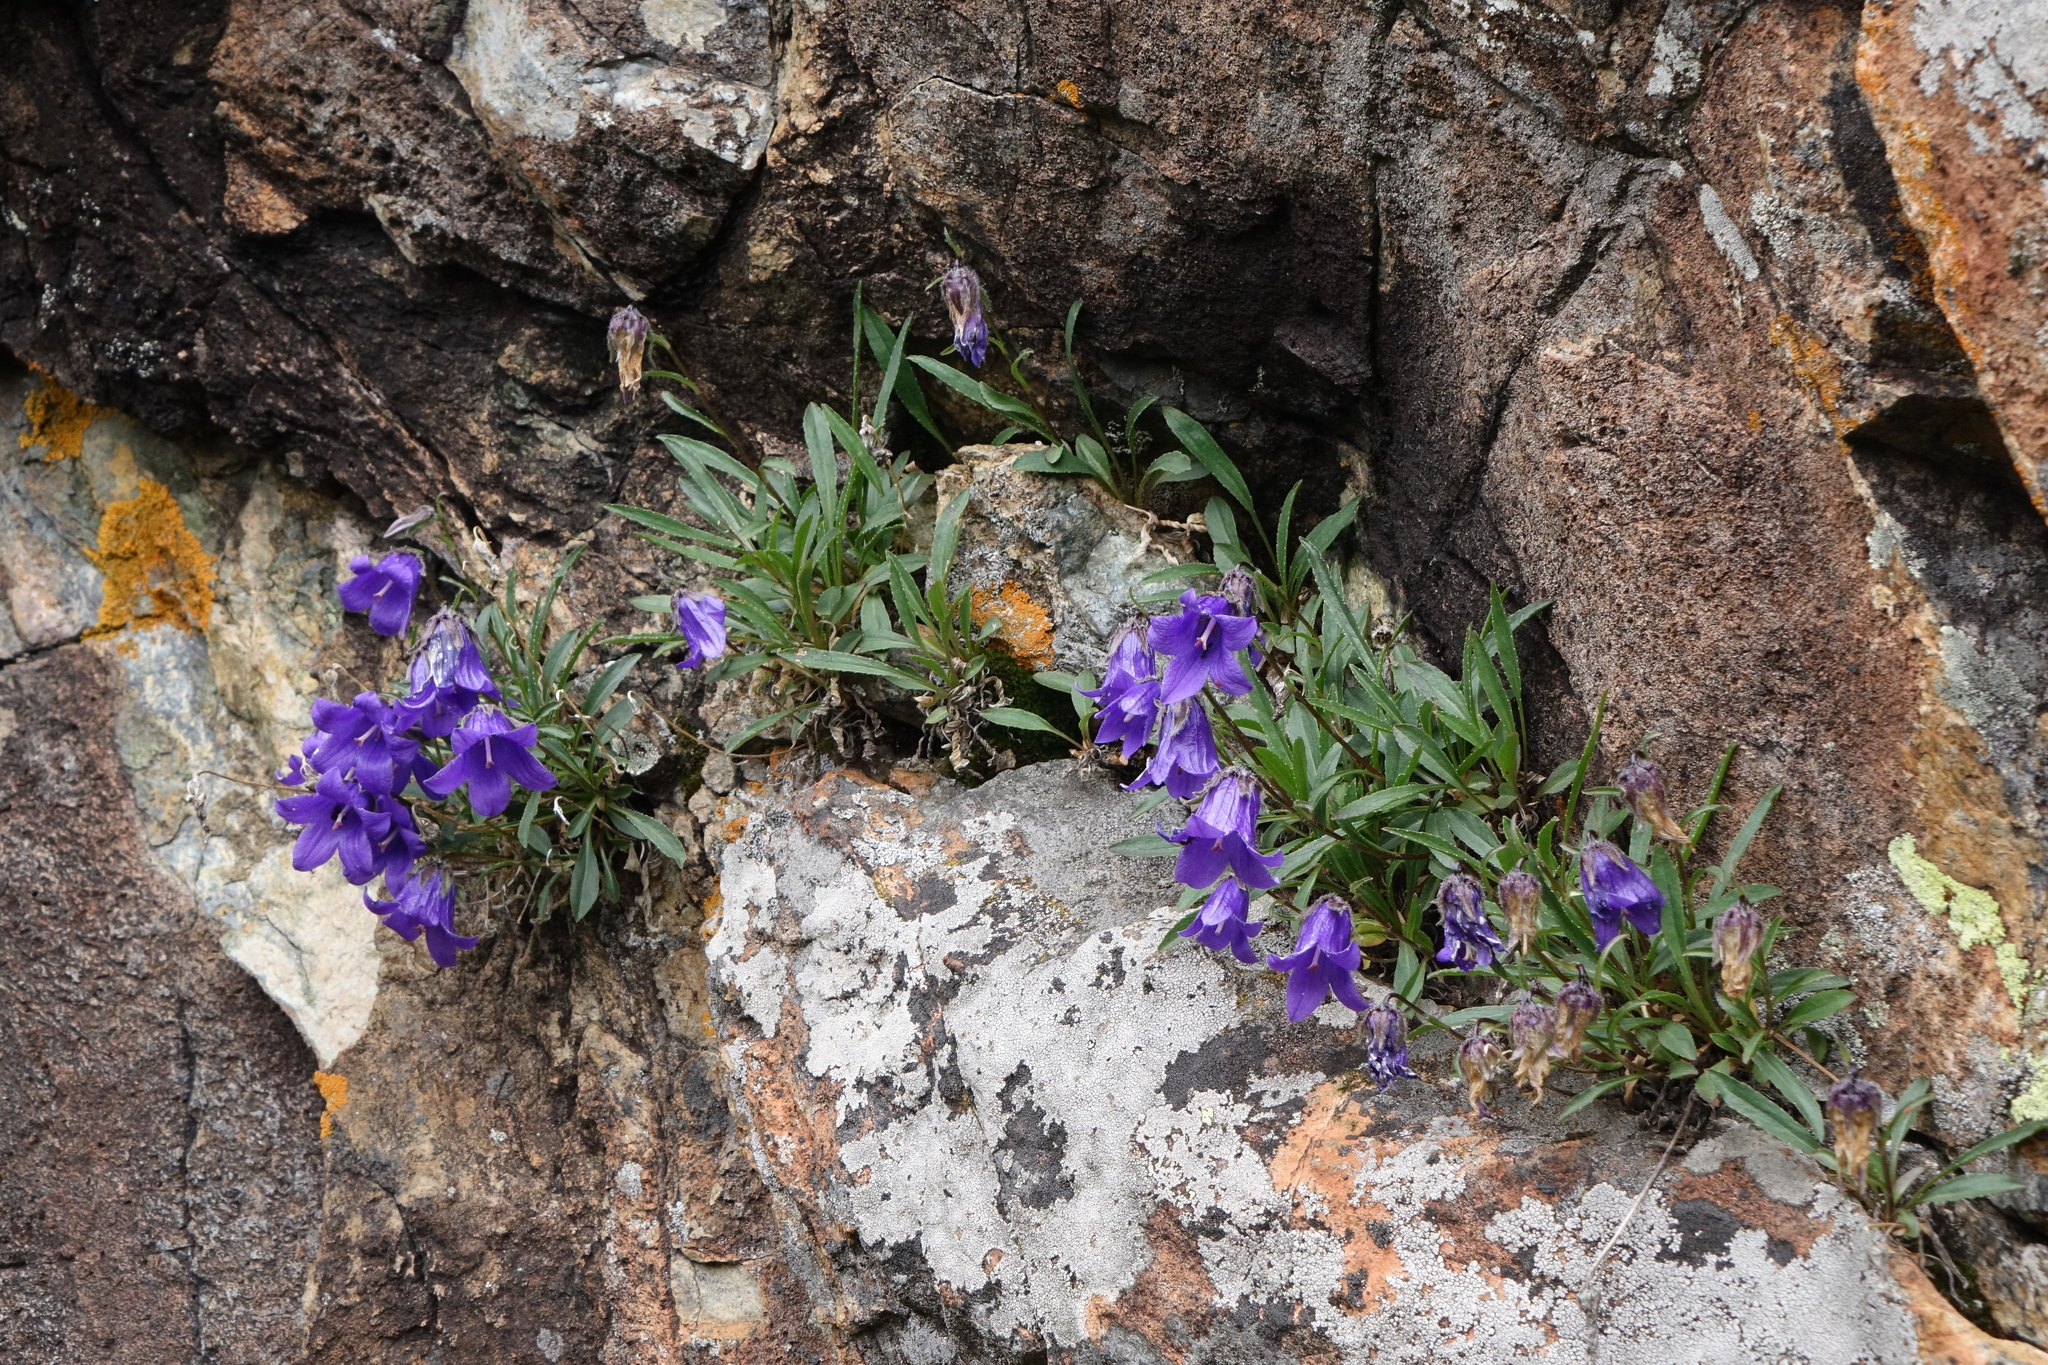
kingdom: Plantae
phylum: Tracheophyta
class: Magnoliopsida
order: Asterales
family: Campanulaceae
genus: Campanula
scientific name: Campanula dasyantha
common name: Hairyflower bellflower
